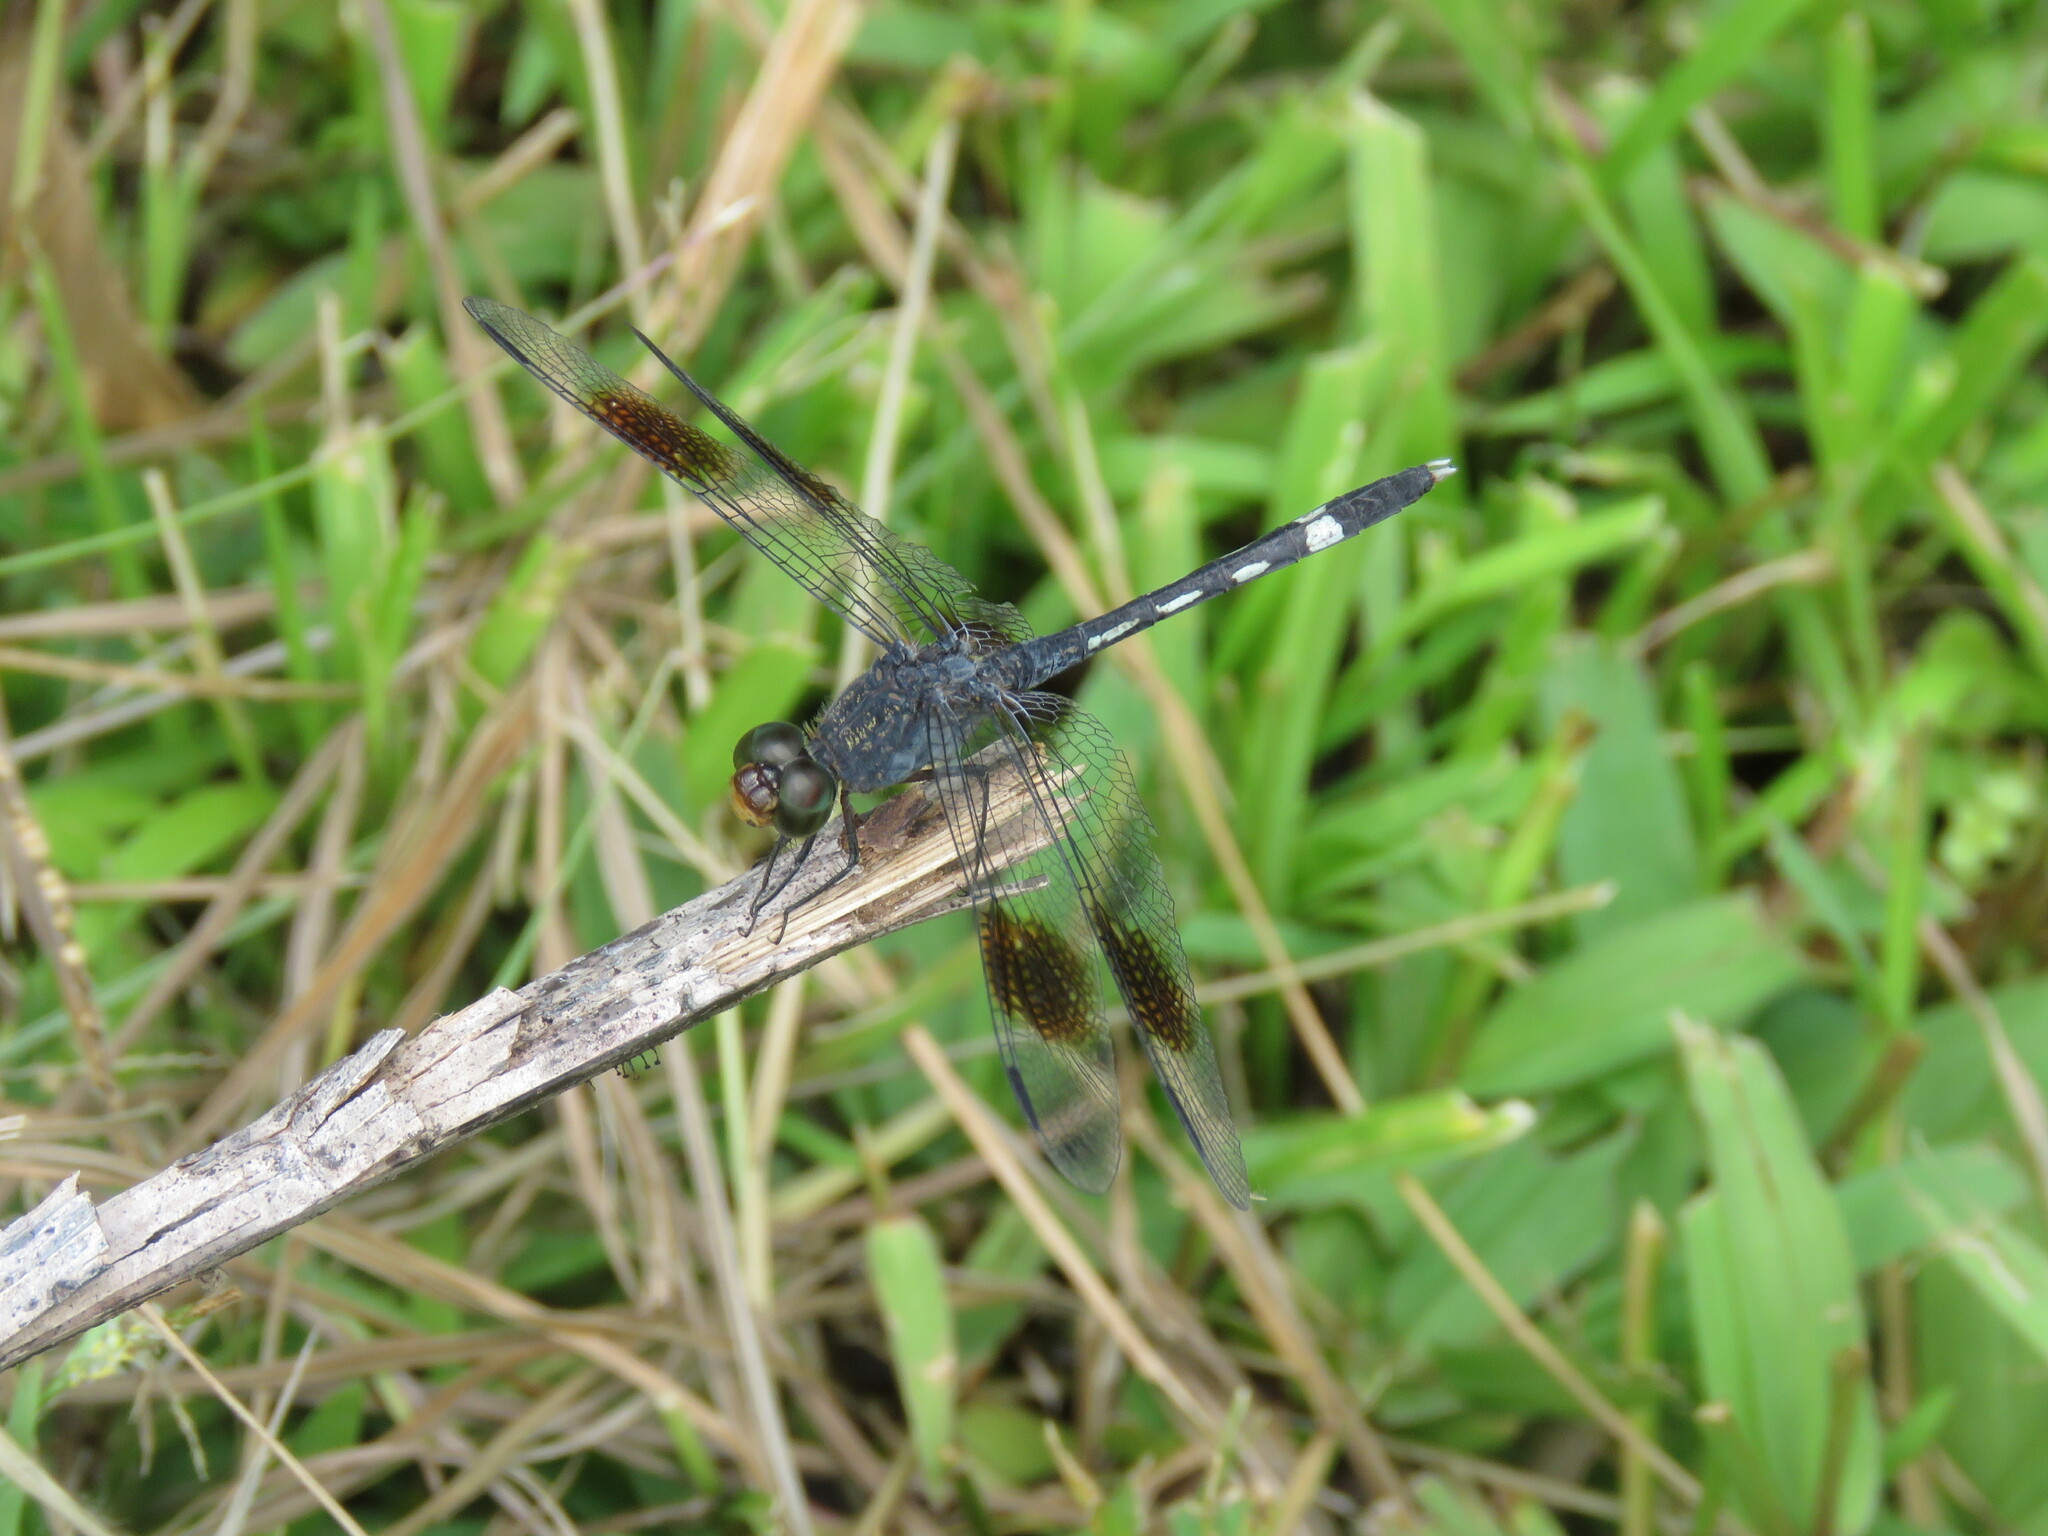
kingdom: Animalia
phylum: Arthropoda
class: Insecta
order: Odonata
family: Libellulidae
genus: Erythrodiplax
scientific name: Erythrodiplax venusta
